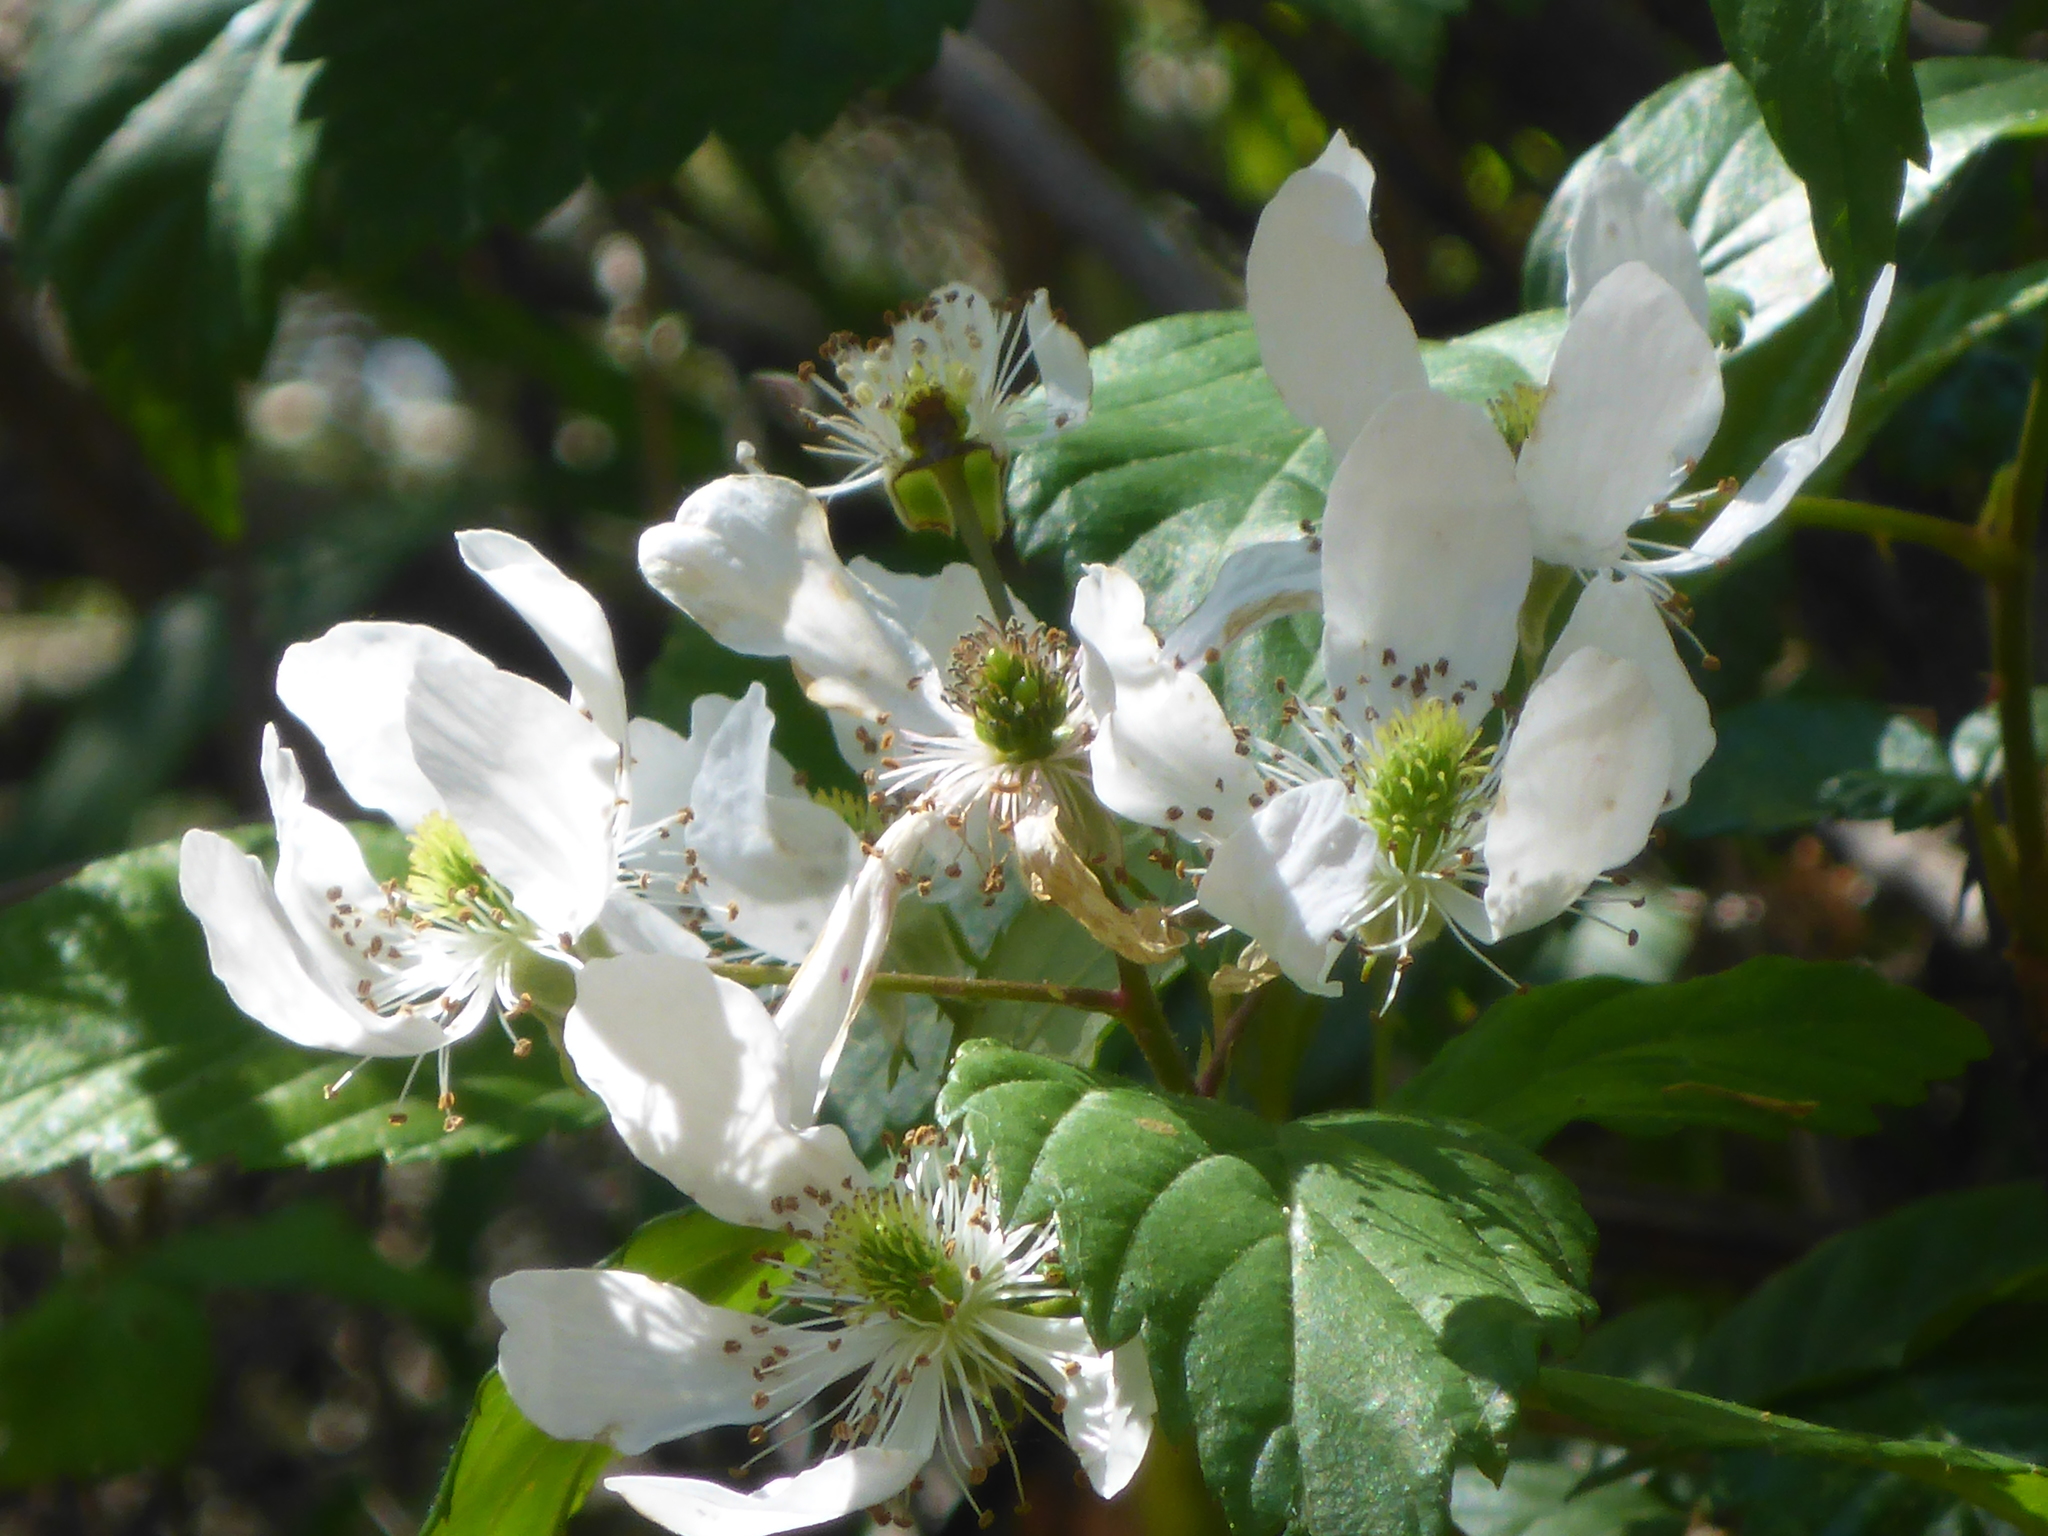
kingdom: Plantae
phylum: Tracheophyta
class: Magnoliopsida
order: Rosales
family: Rosaceae
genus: Rubus
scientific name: Rubus pensilvanicus
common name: Pennsylvania blackberry
